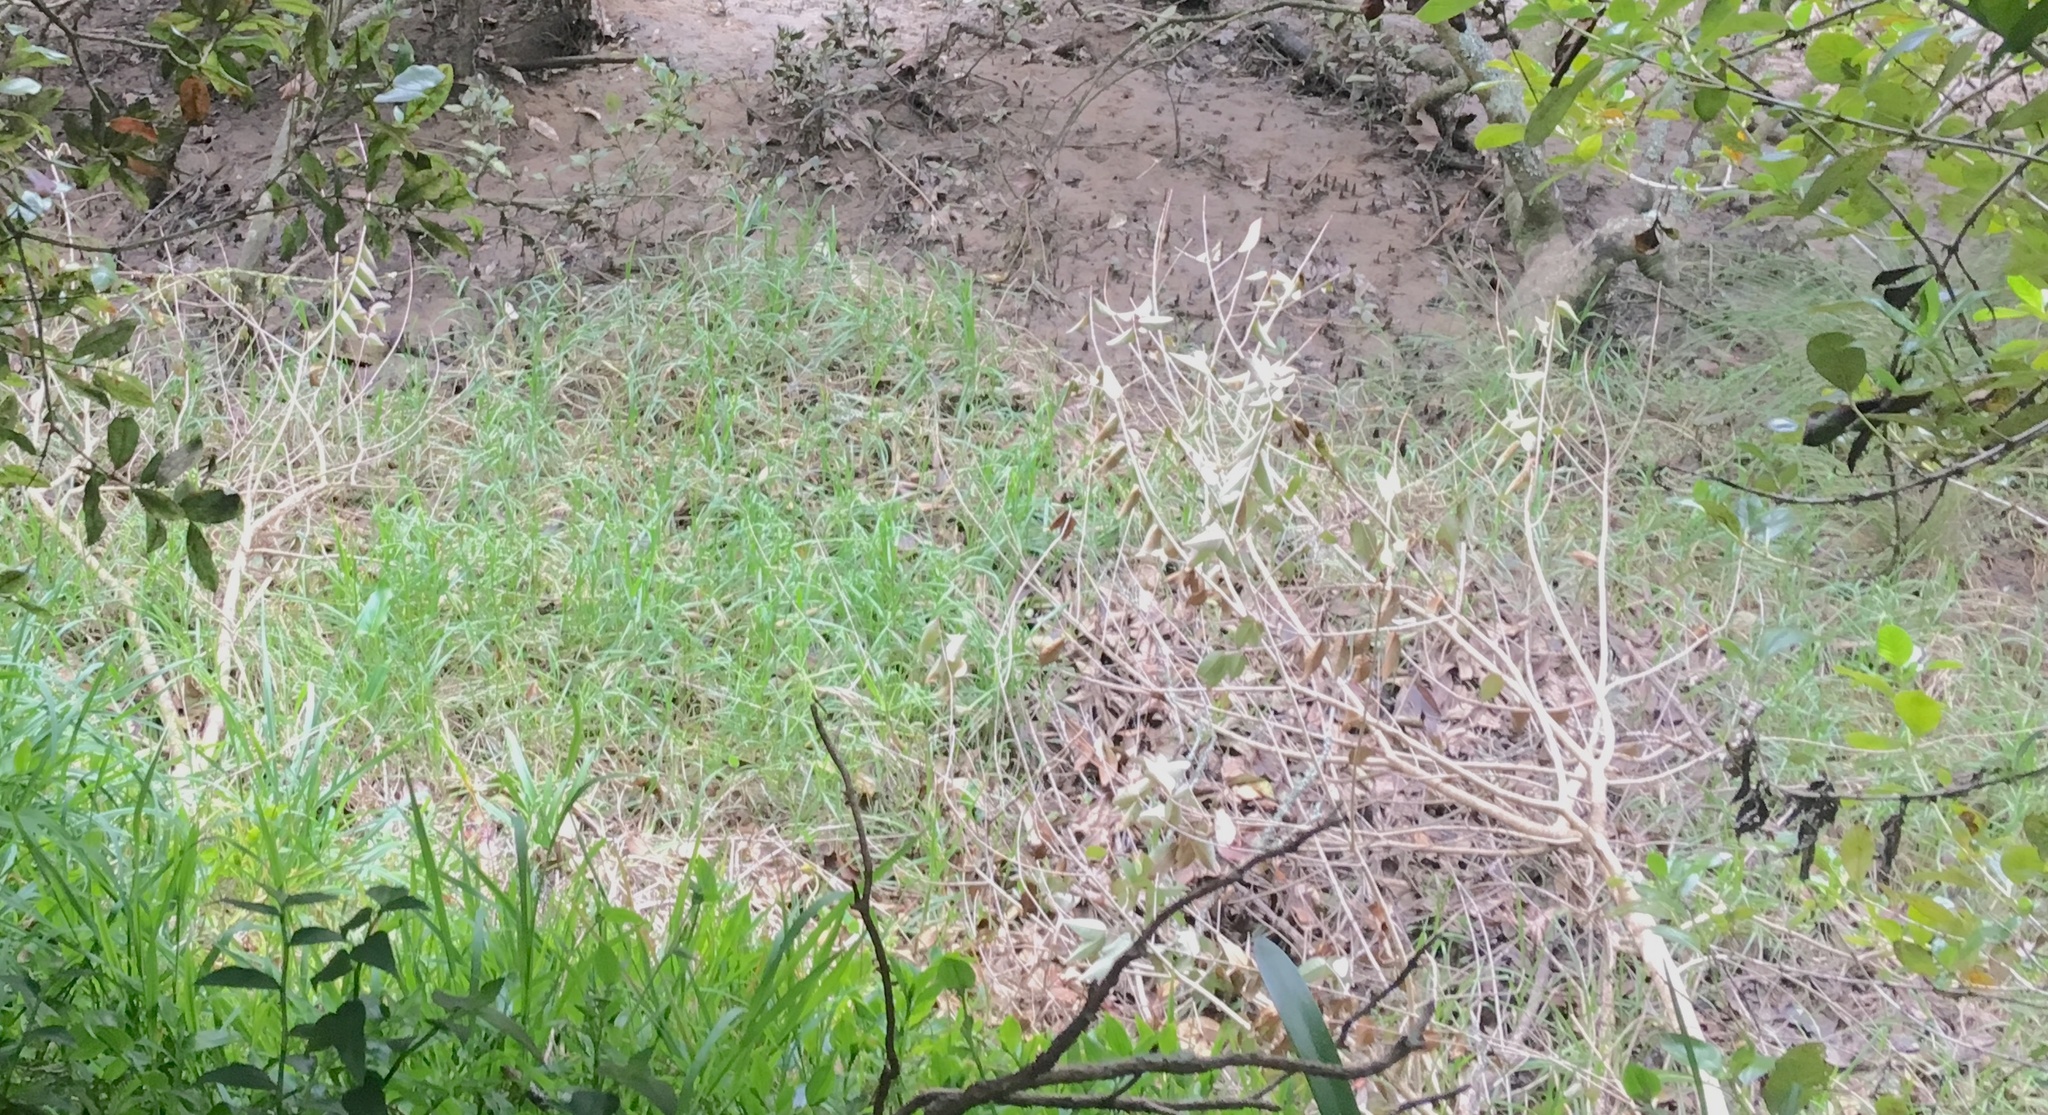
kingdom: Plantae
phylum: Tracheophyta
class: Liliopsida
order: Poales
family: Poaceae
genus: Cenchrus
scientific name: Cenchrus clandestinus
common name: Kikuyugrass
